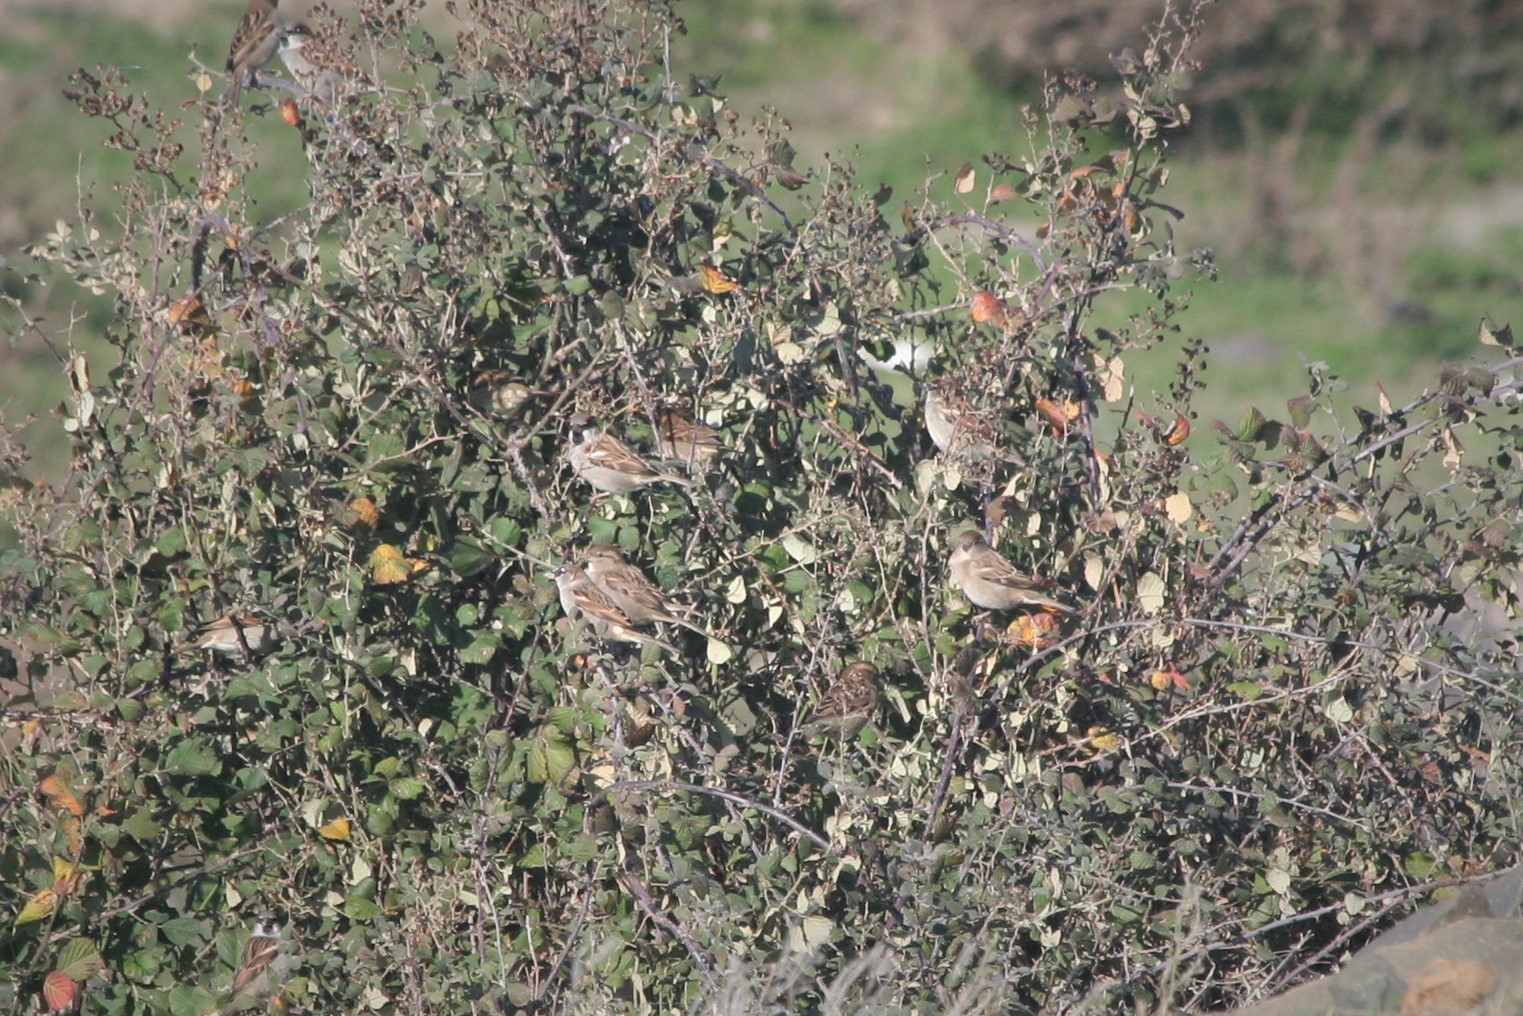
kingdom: Animalia
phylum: Chordata
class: Aves
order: Passeriformes
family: Passeridae
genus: Passer
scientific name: Passer domesticus
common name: House sparrow
